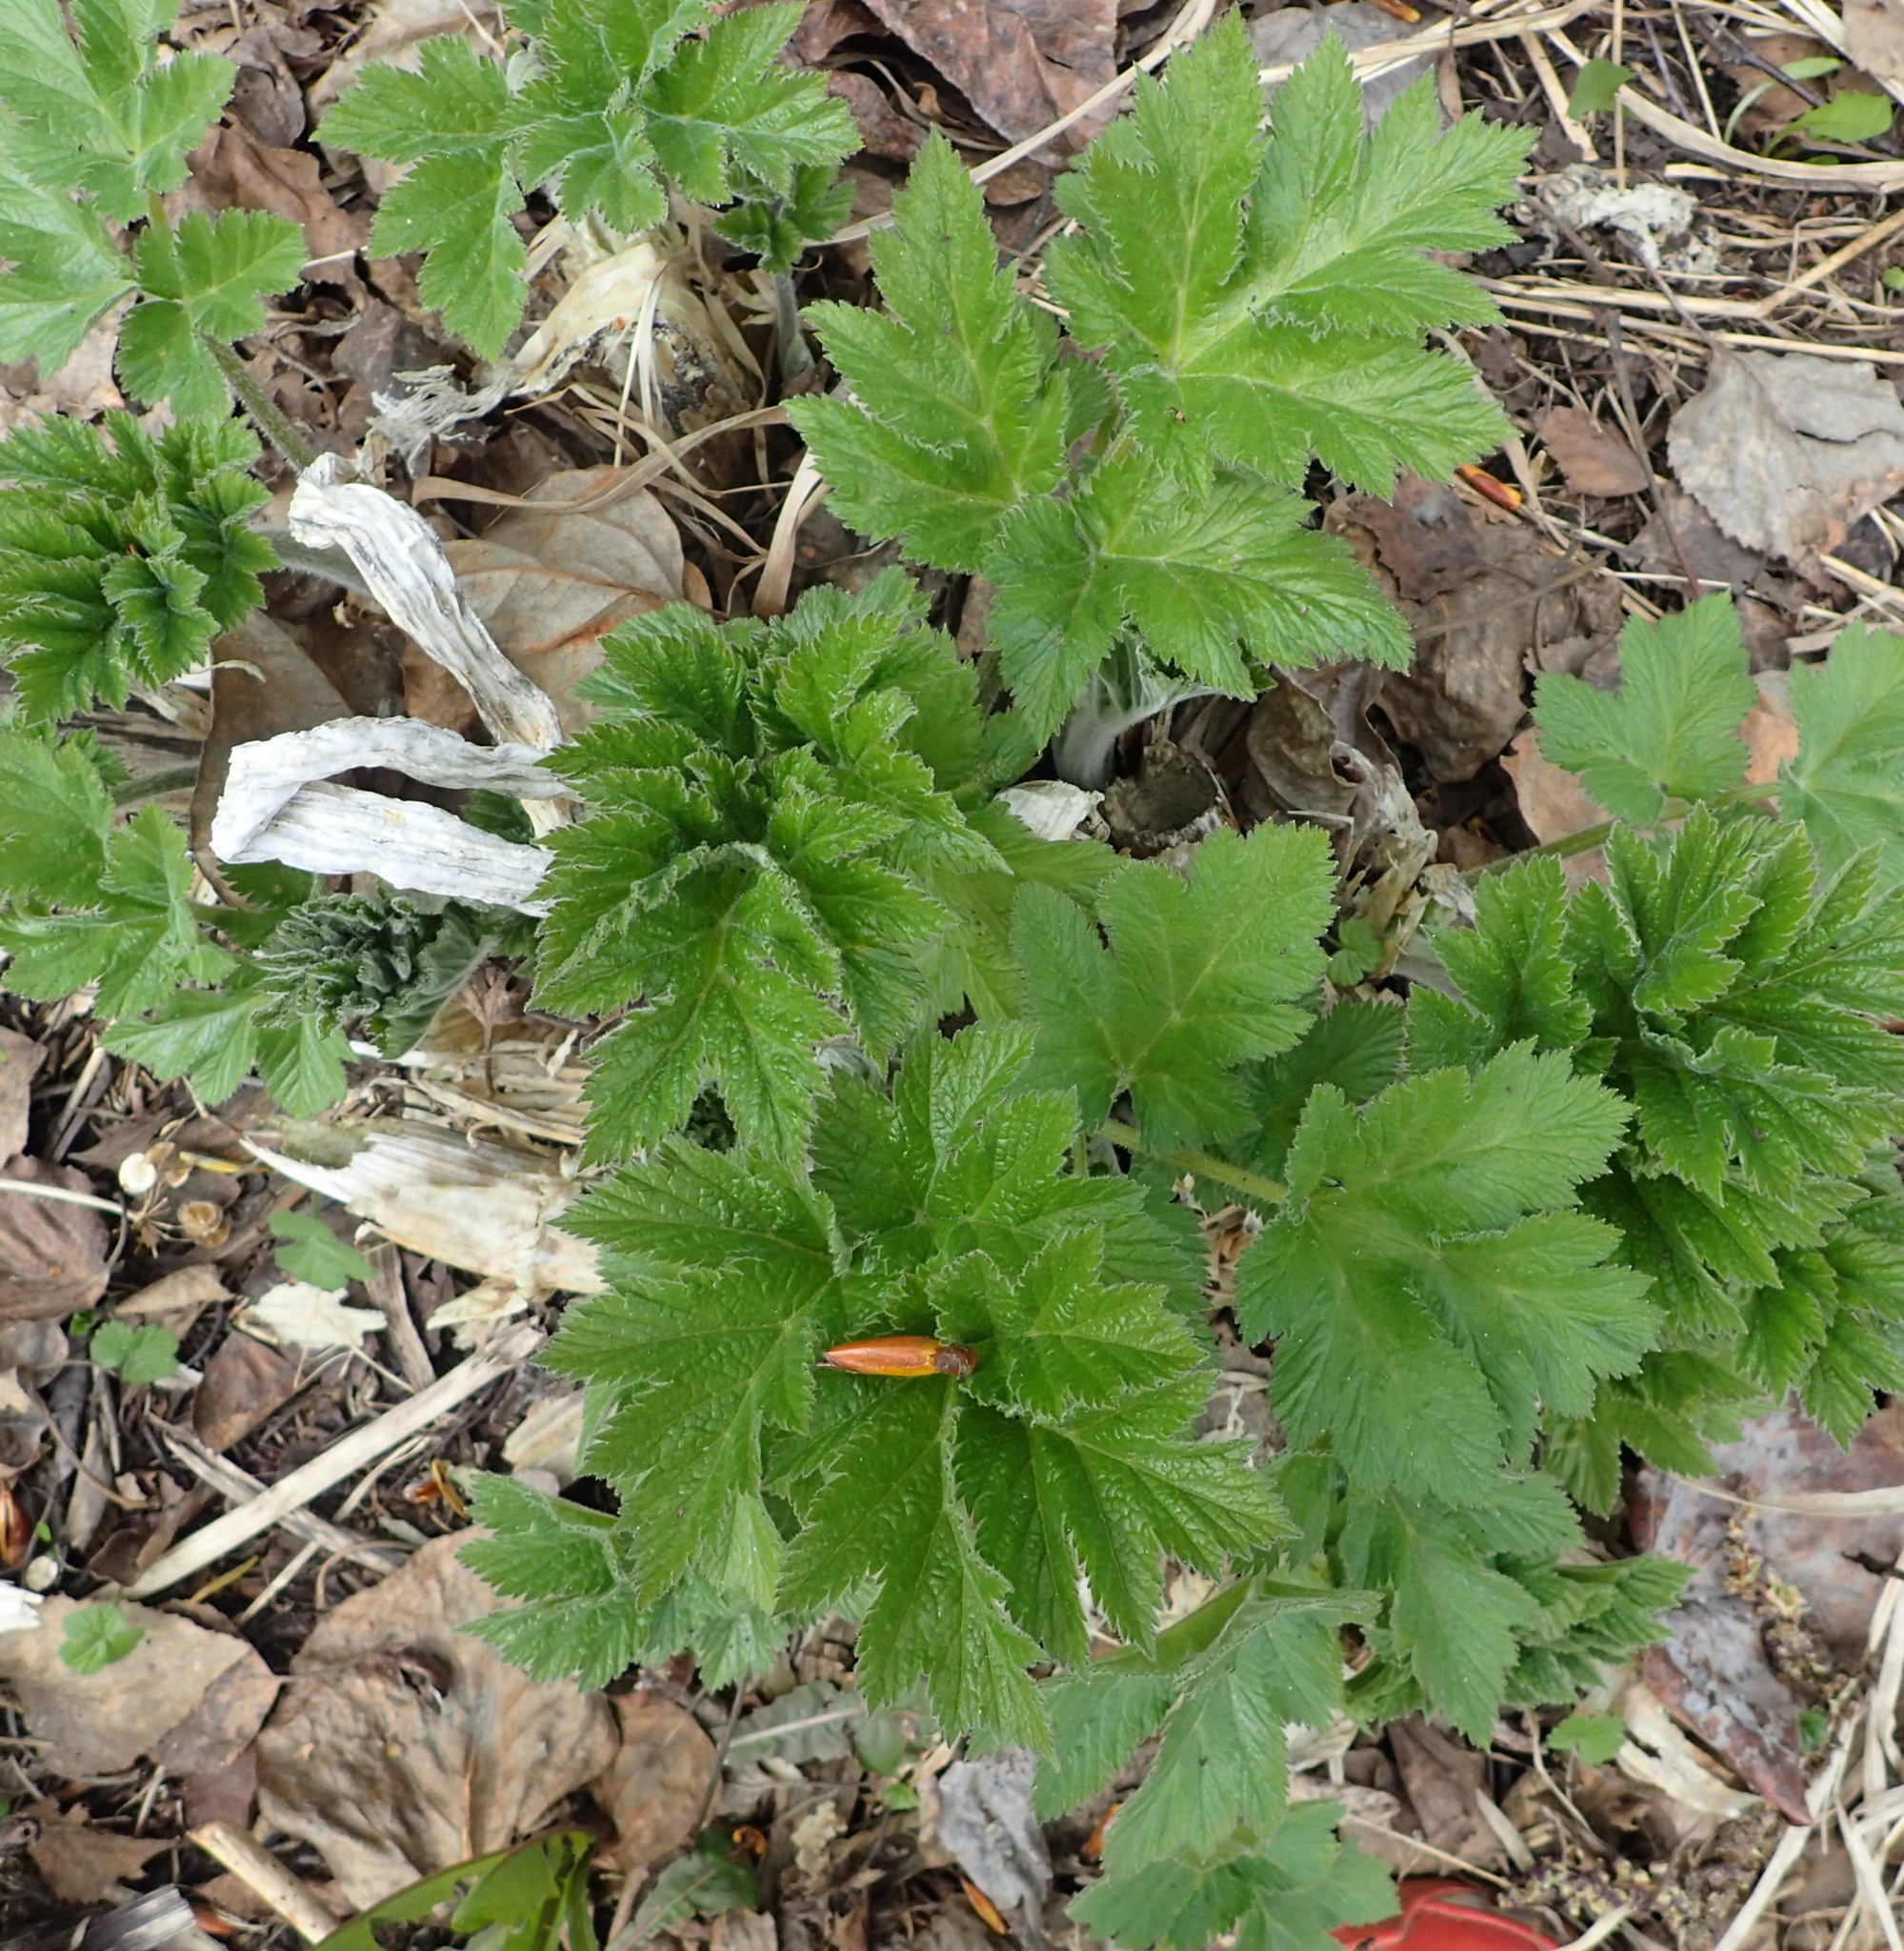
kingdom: Plantae
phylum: Tracheophyta
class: Magnoliopsida
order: Apiales
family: Apiaceae
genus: Heracleum
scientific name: Heracleum maximum
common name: American cow parsnip
